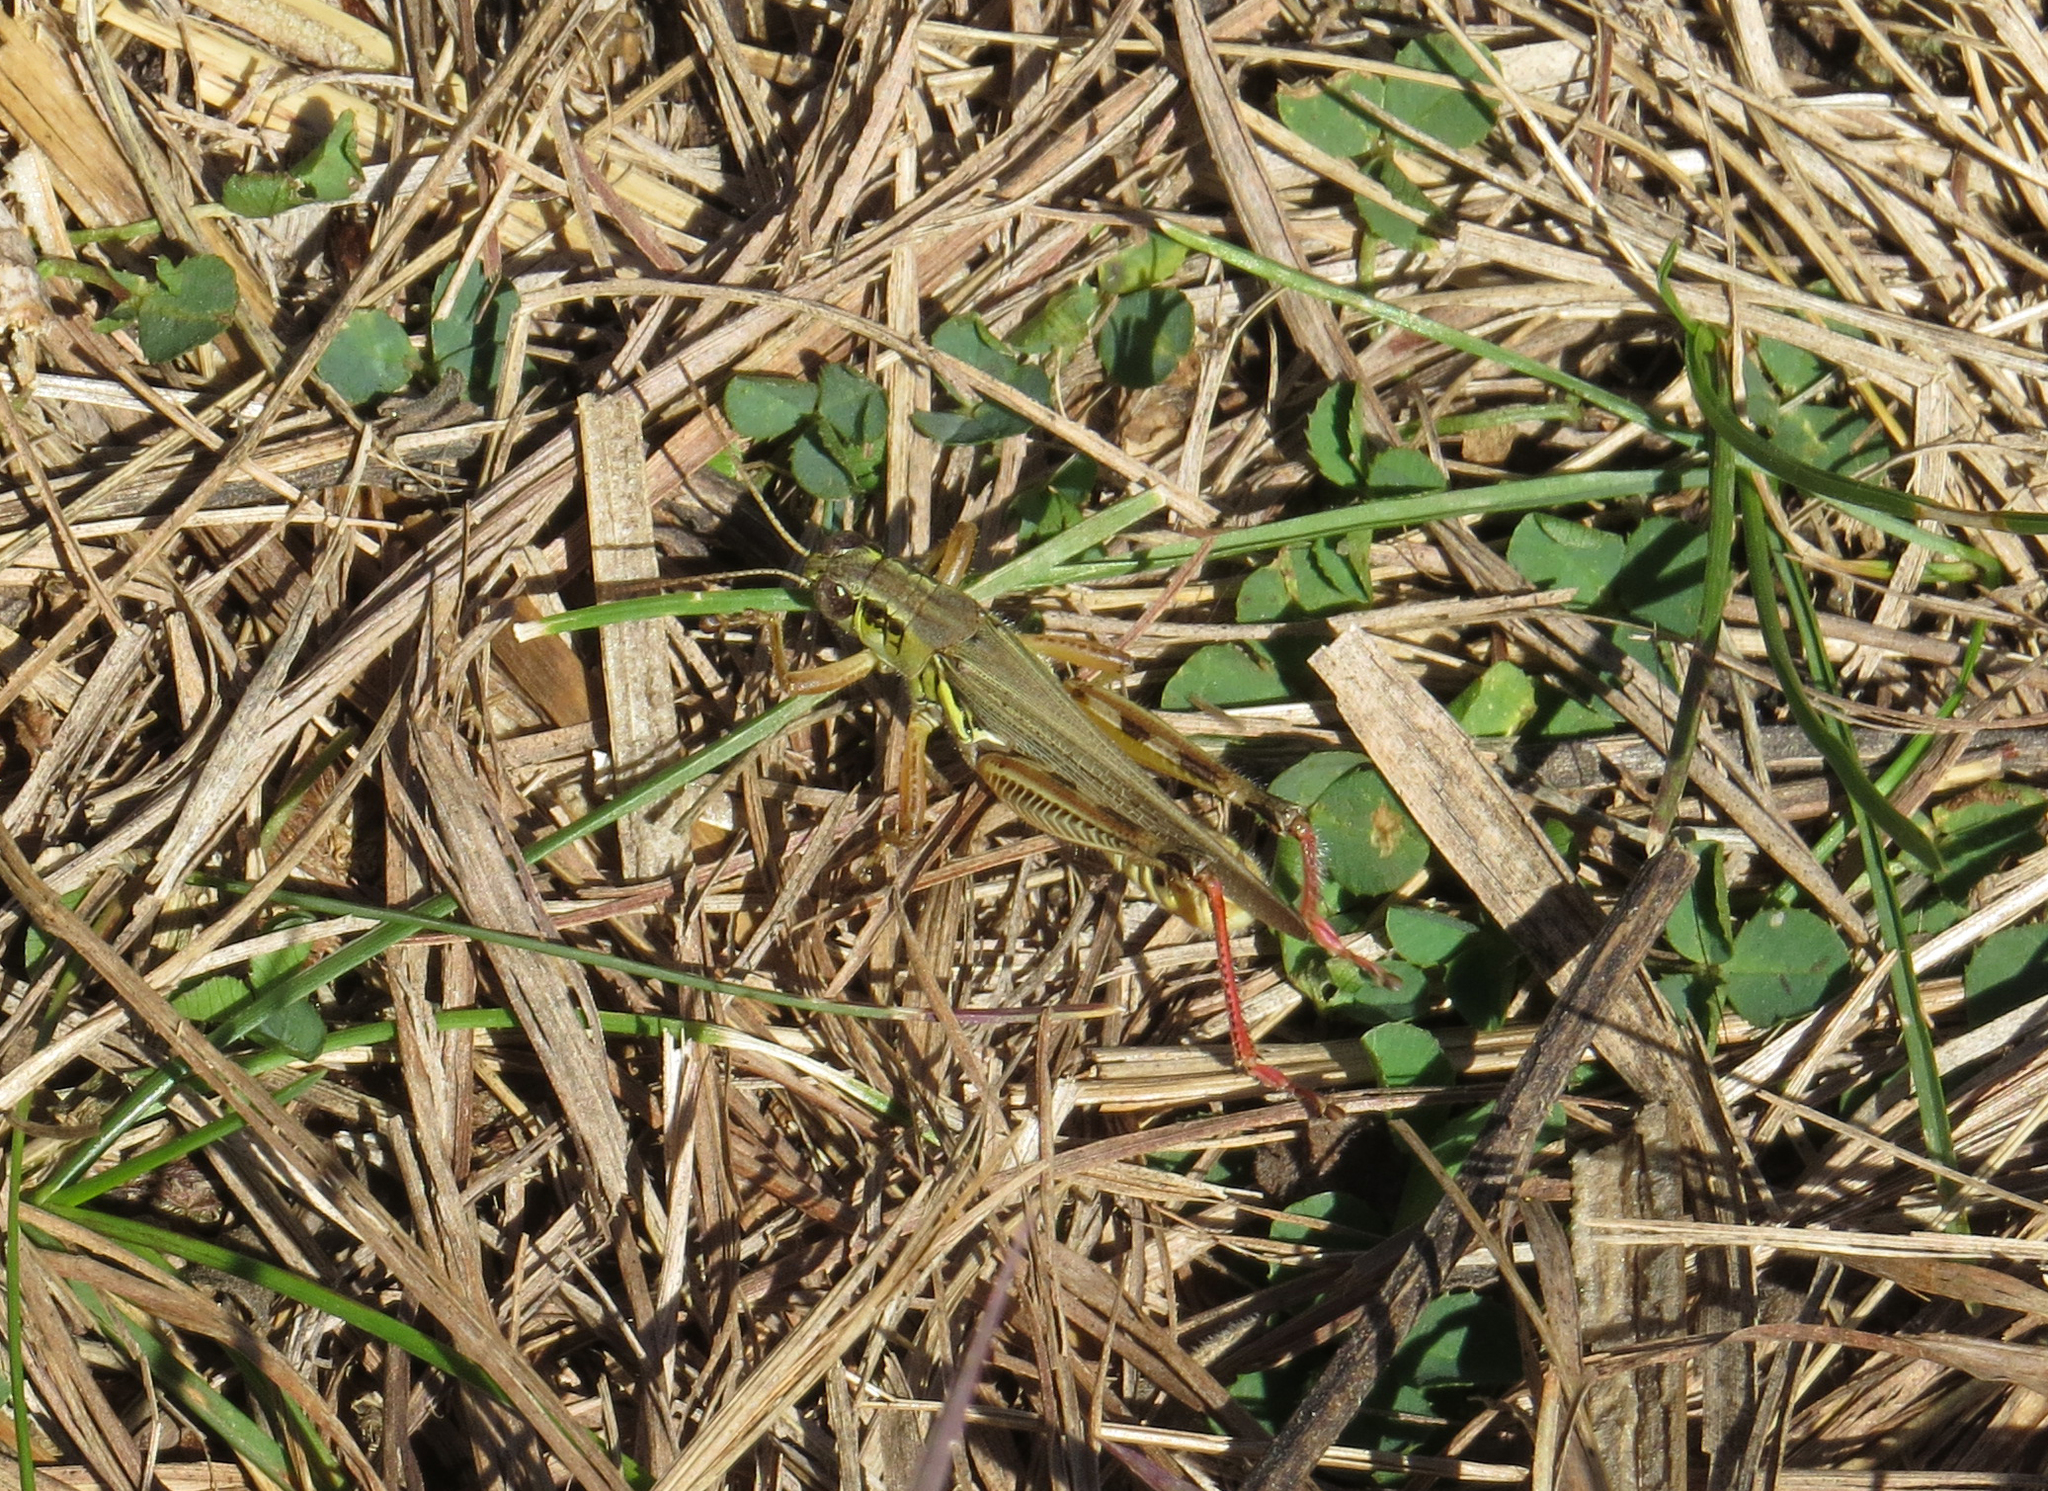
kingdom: Animalia
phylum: Arthropoda
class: Insecta
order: Orthoptera
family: Acrididae
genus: Melanoplus
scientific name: Melanoplus femurrubrum
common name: Red-legged grasshopper
